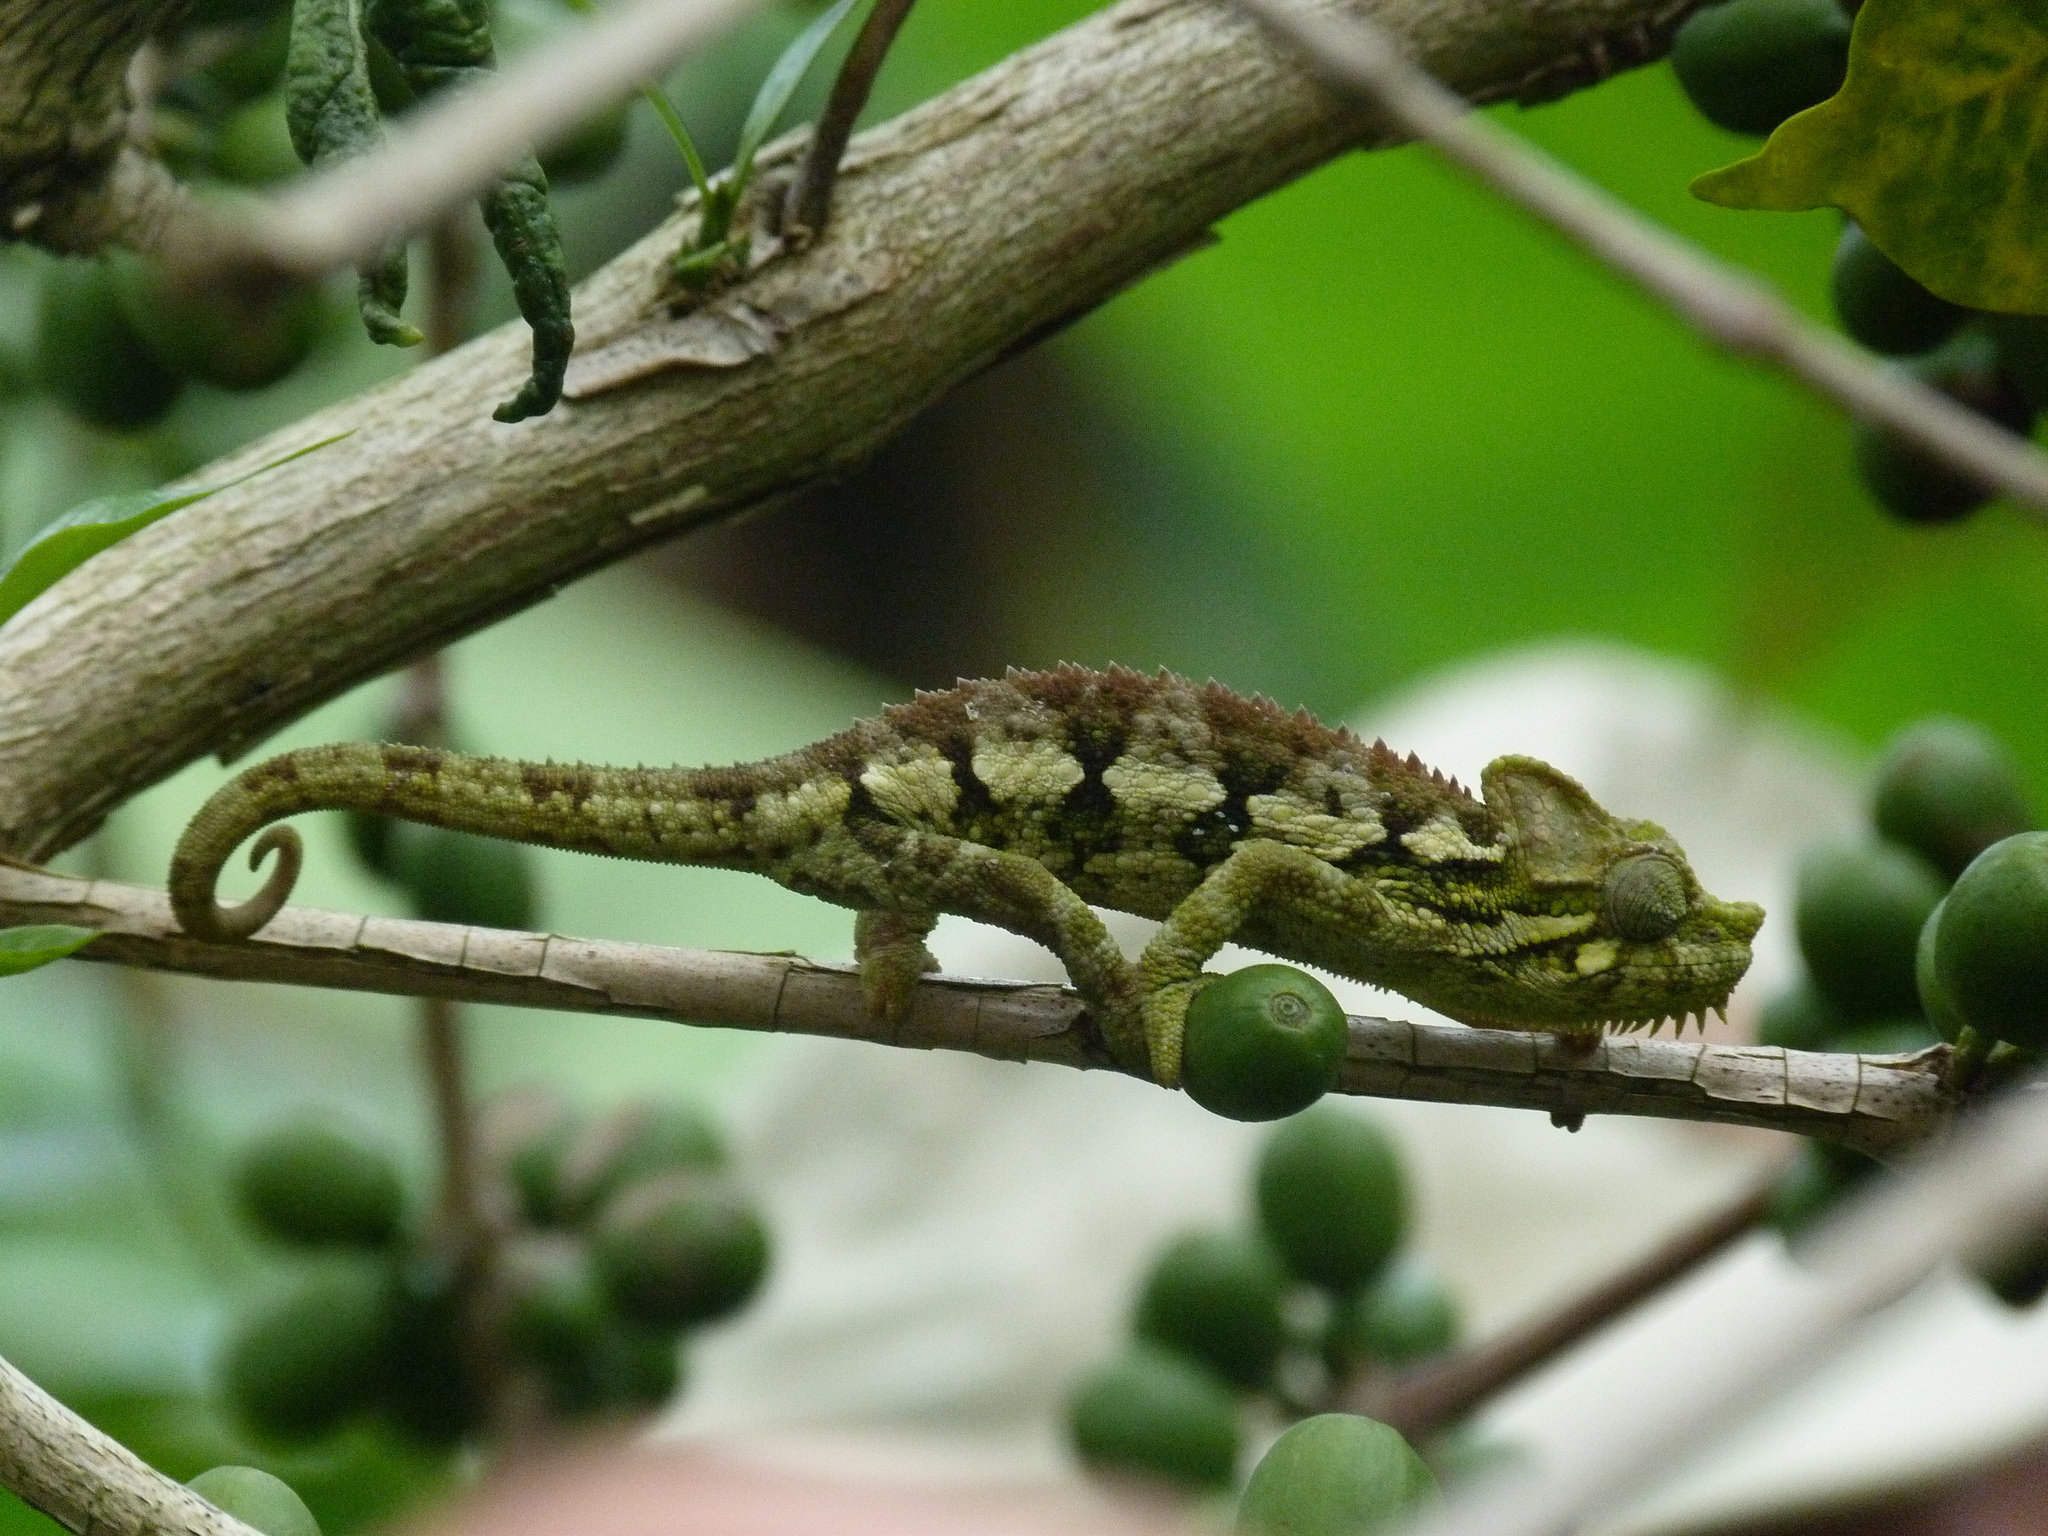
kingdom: Animalia
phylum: Chordata
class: Squamata
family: Chamaeleonidae
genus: Trioceros
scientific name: Trioceros hoehnelii
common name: High-casqued chameleon
